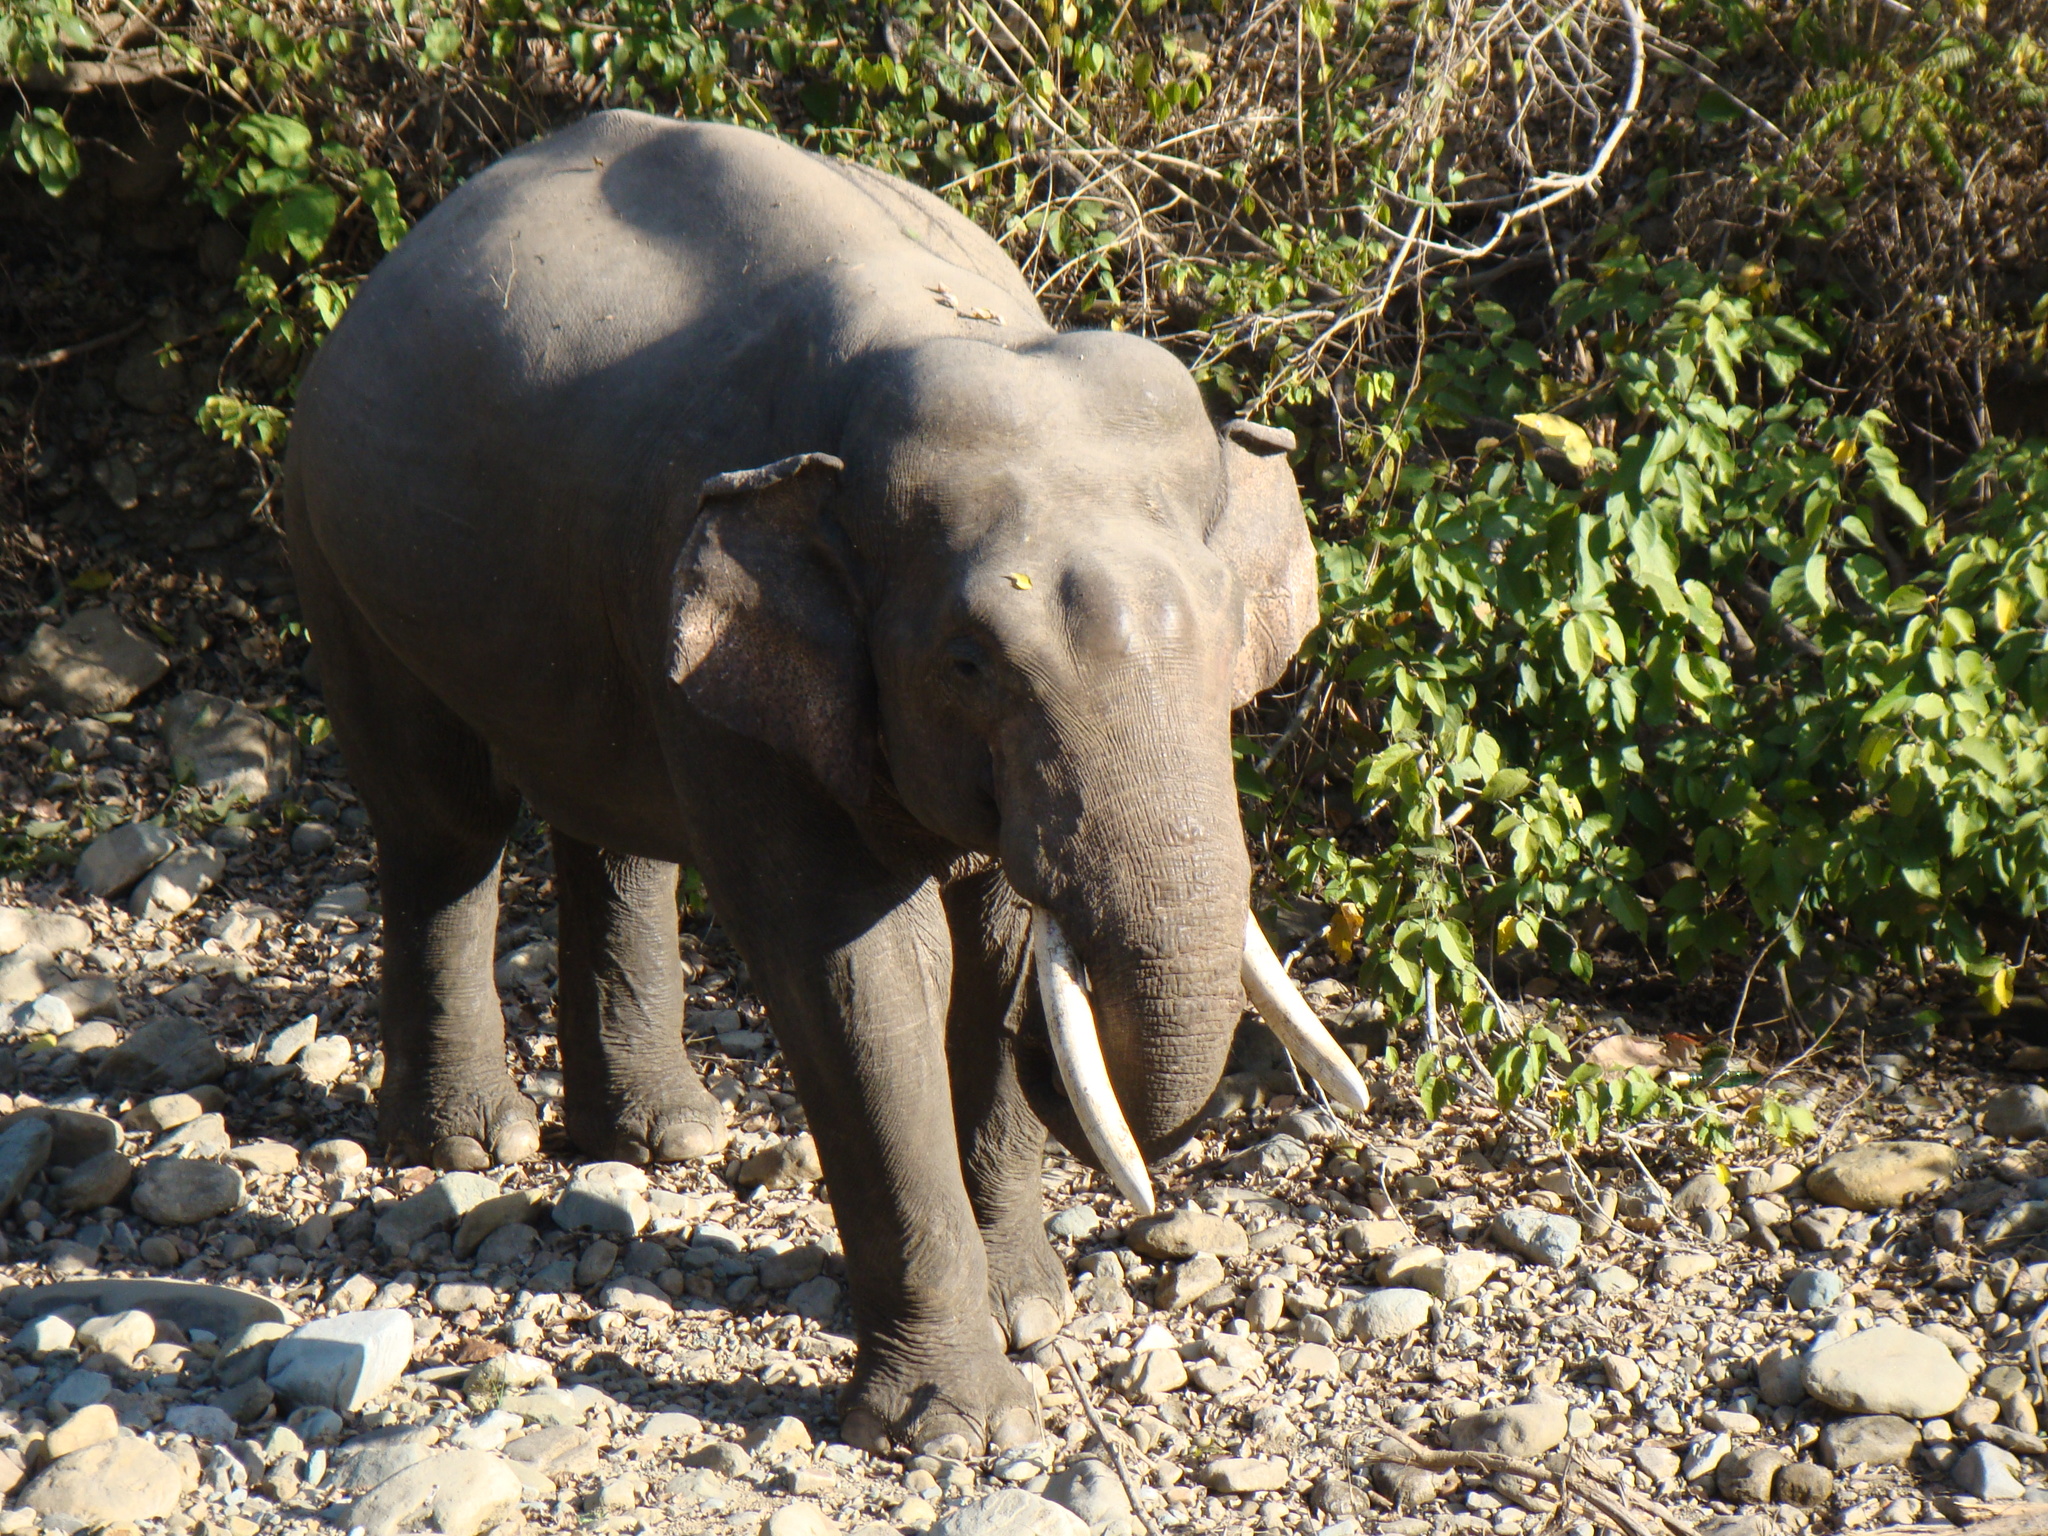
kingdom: Animalia
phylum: Chordata
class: Mammalia
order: Proboscidea
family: Elephantidae
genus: Elephas
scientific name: Elephas maximus
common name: Asian elephant
